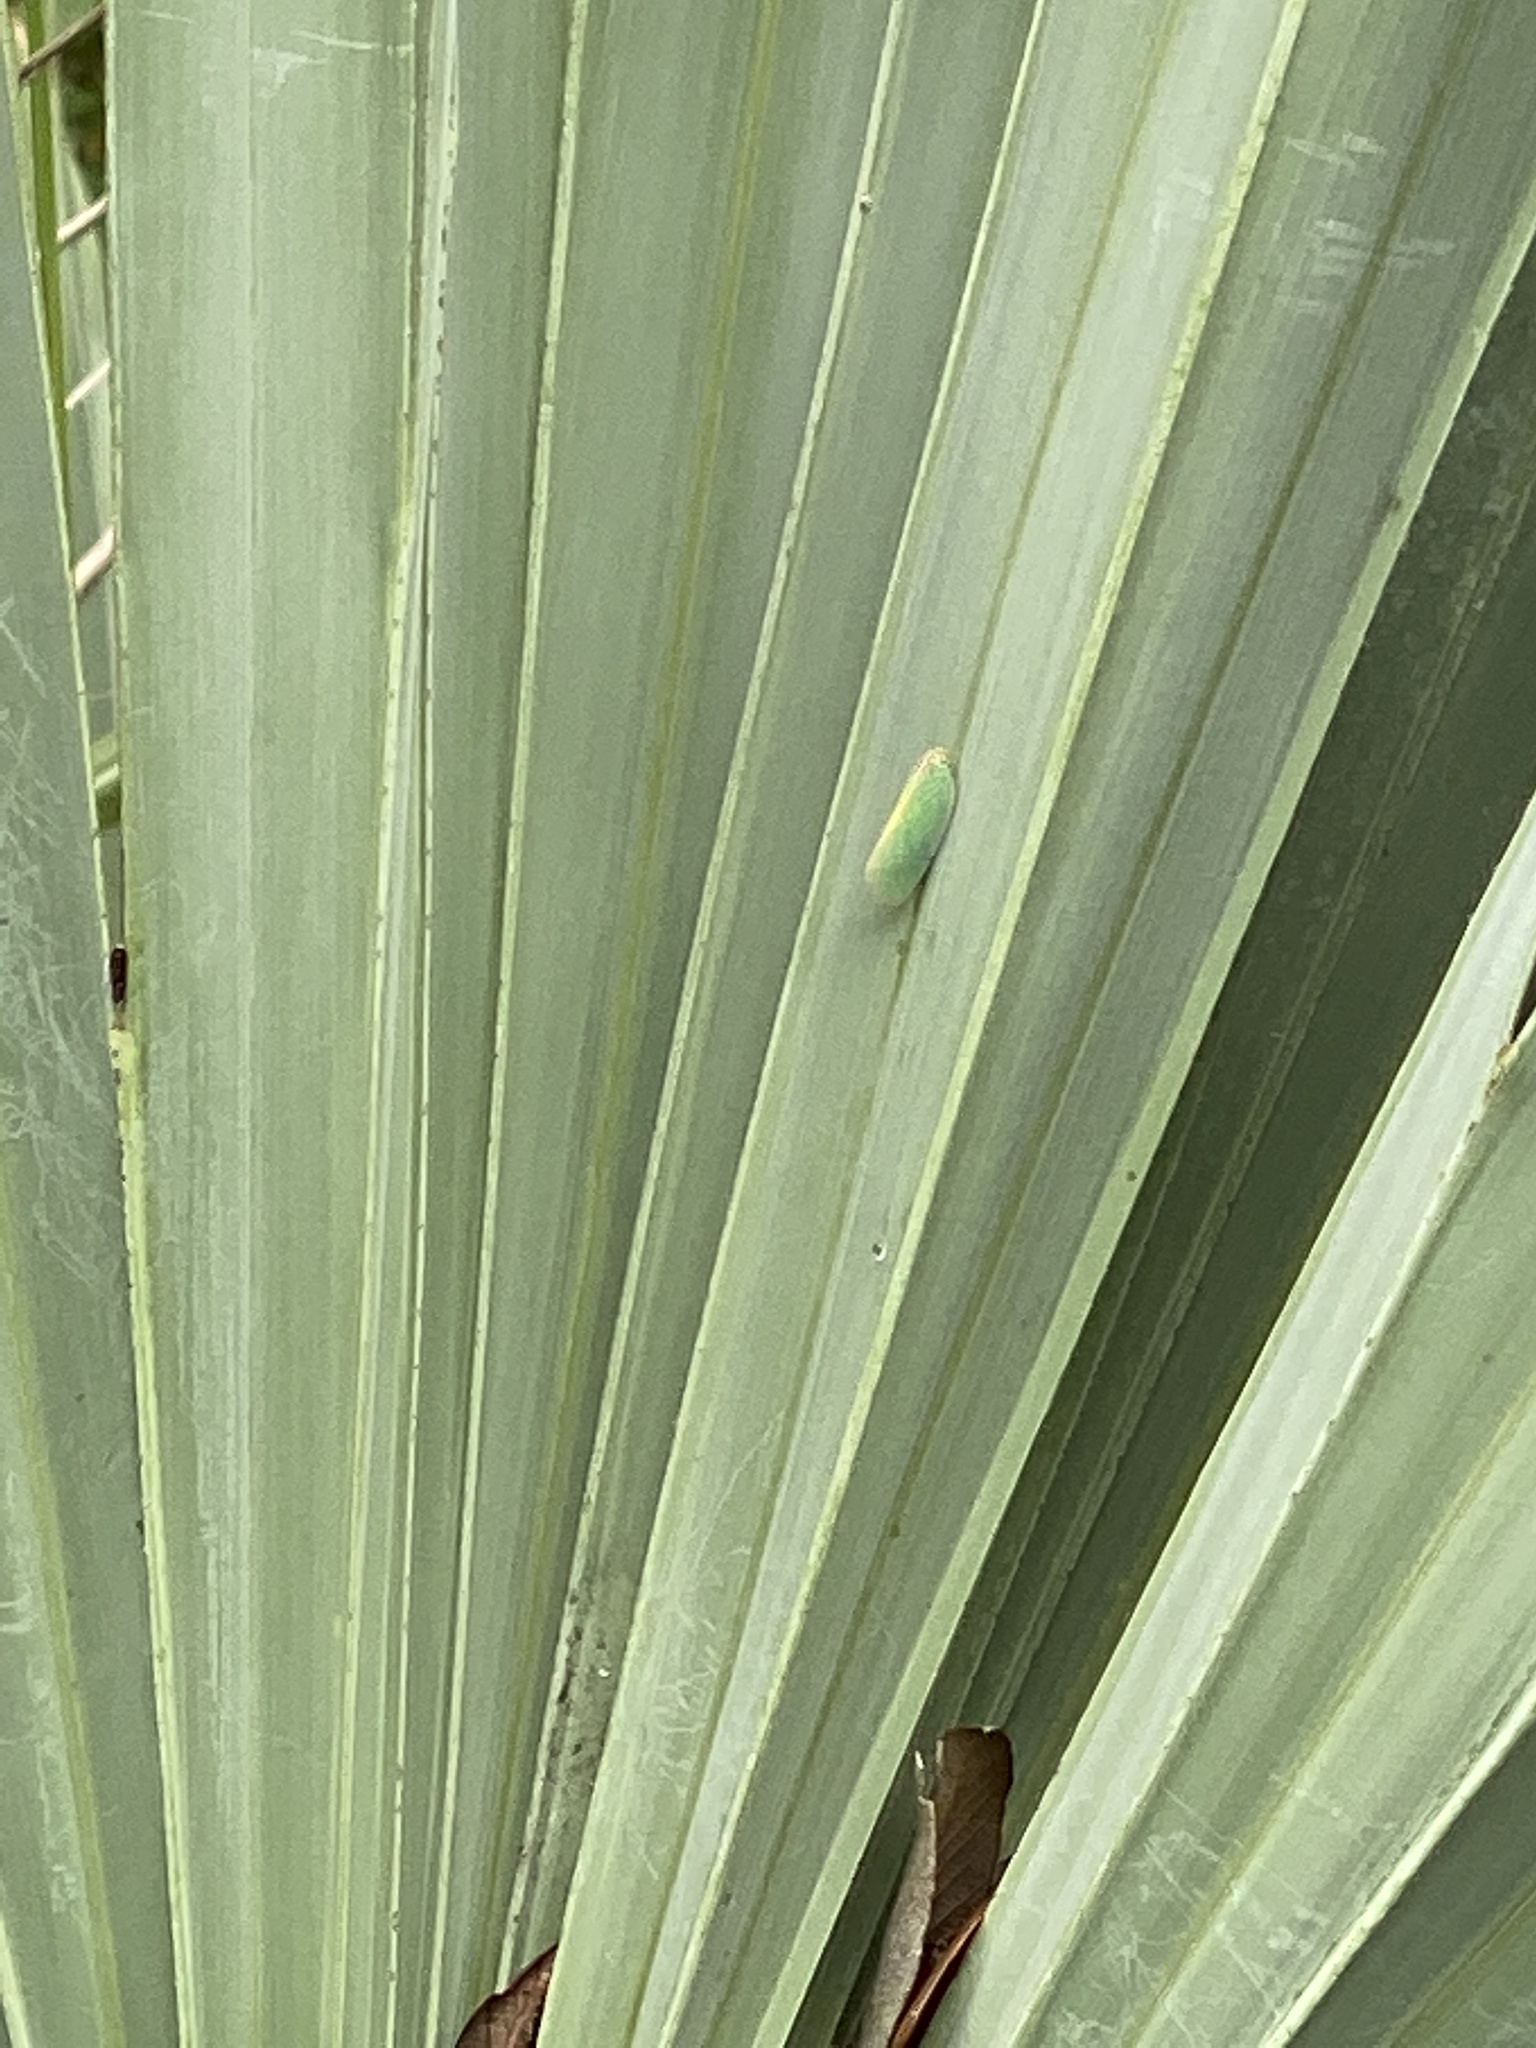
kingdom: Animalia
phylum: Arthropoda
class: Insecta
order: Hemiptera
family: Flatidae
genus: Ormenaria
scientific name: Ormenaria rufifascia
